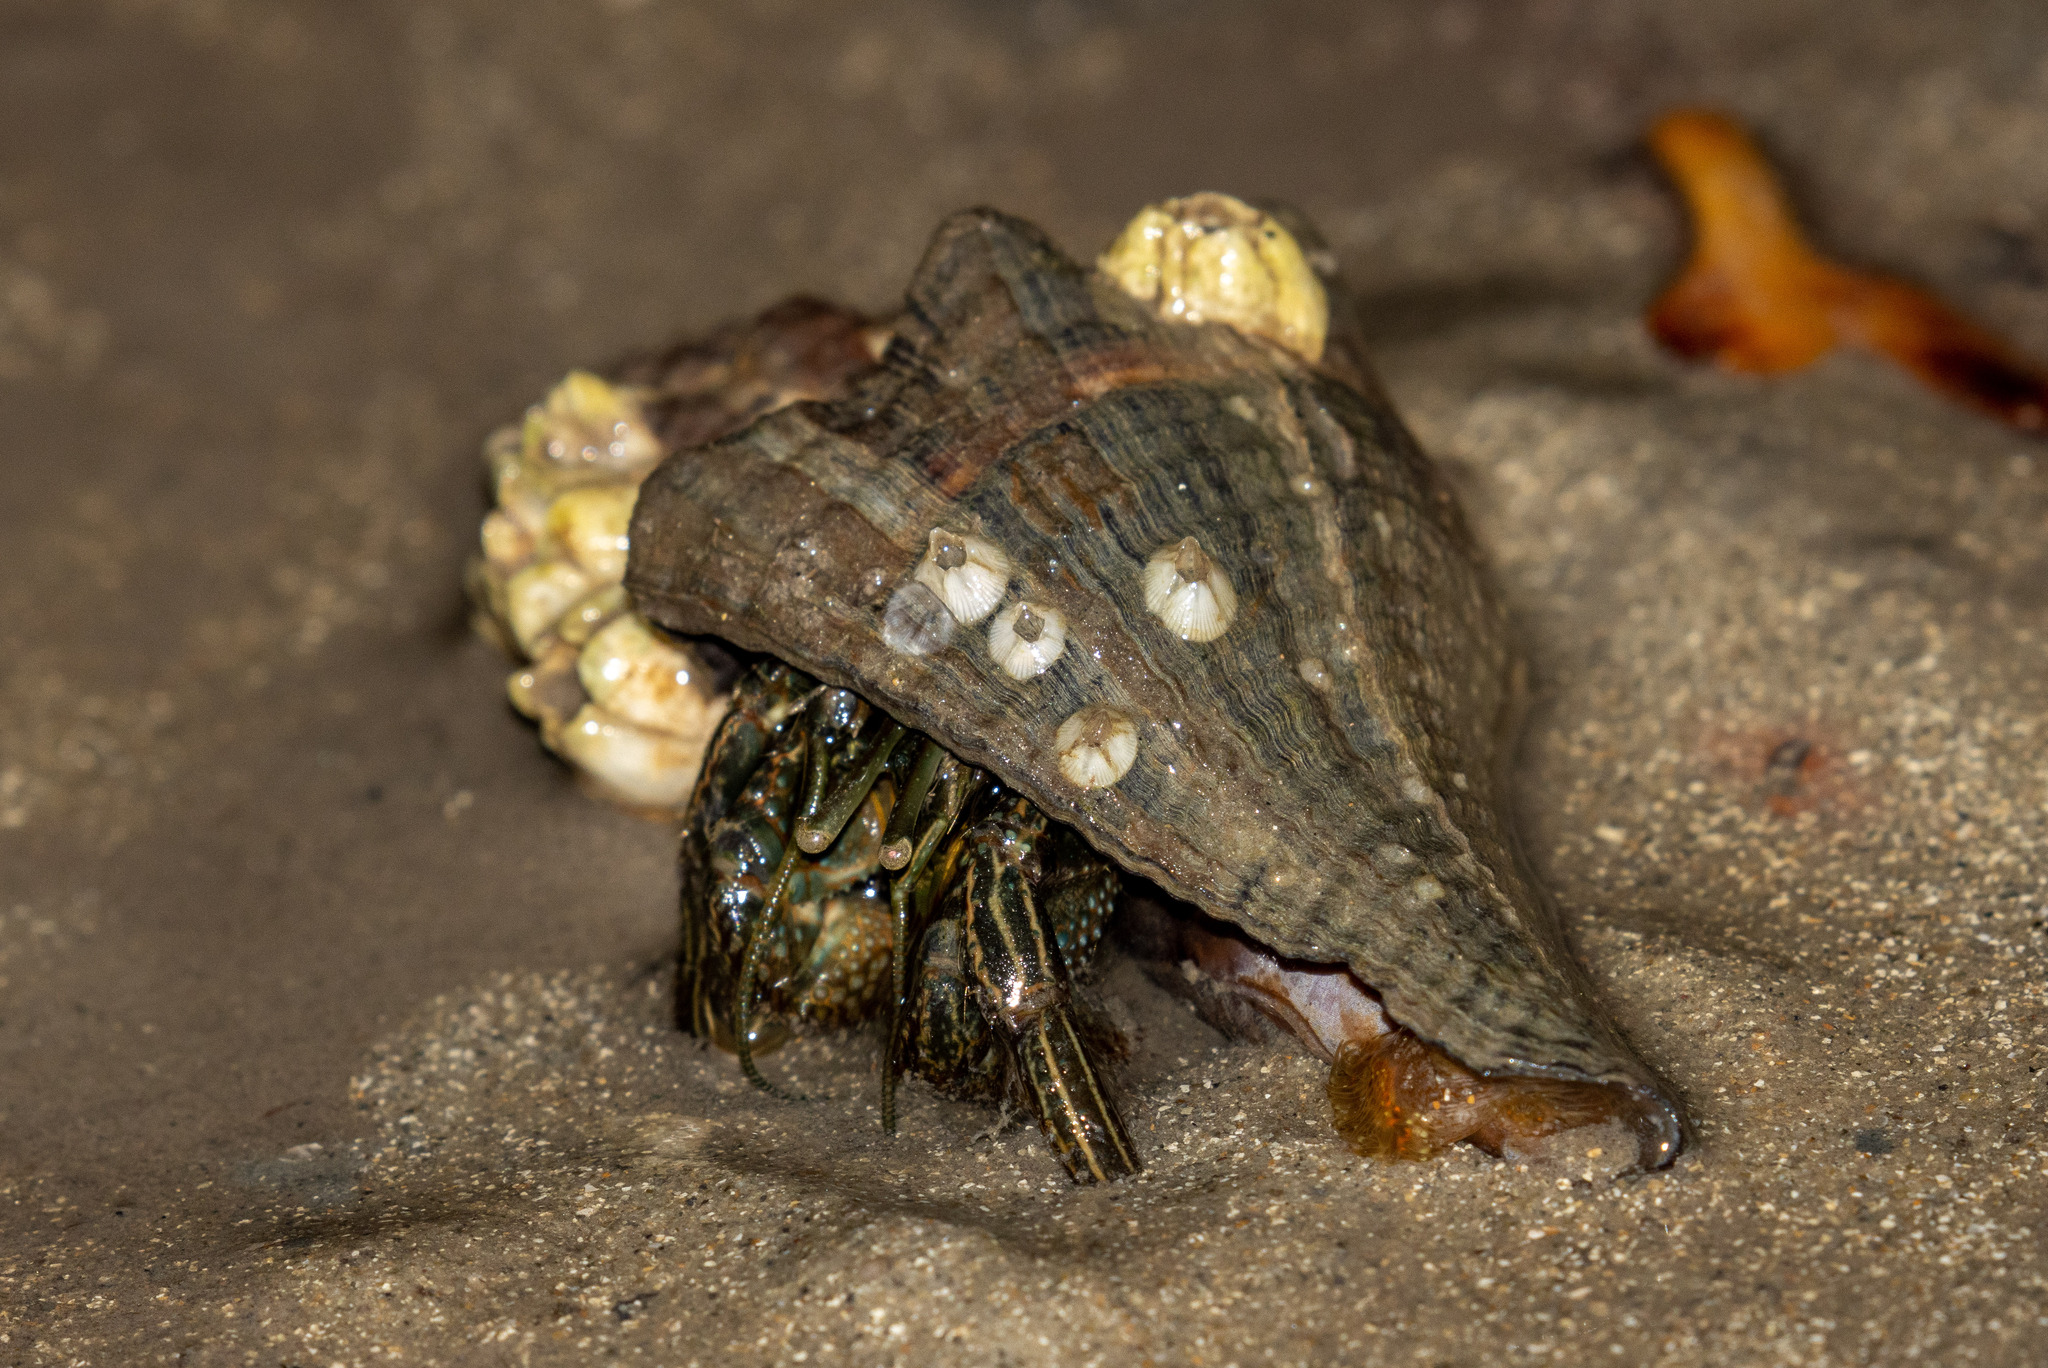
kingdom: Animalia
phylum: Arthropoda
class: Malacostraca
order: Decapoda
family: Diogenidae
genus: Clibanarius
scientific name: Clibanarius symmetricus
